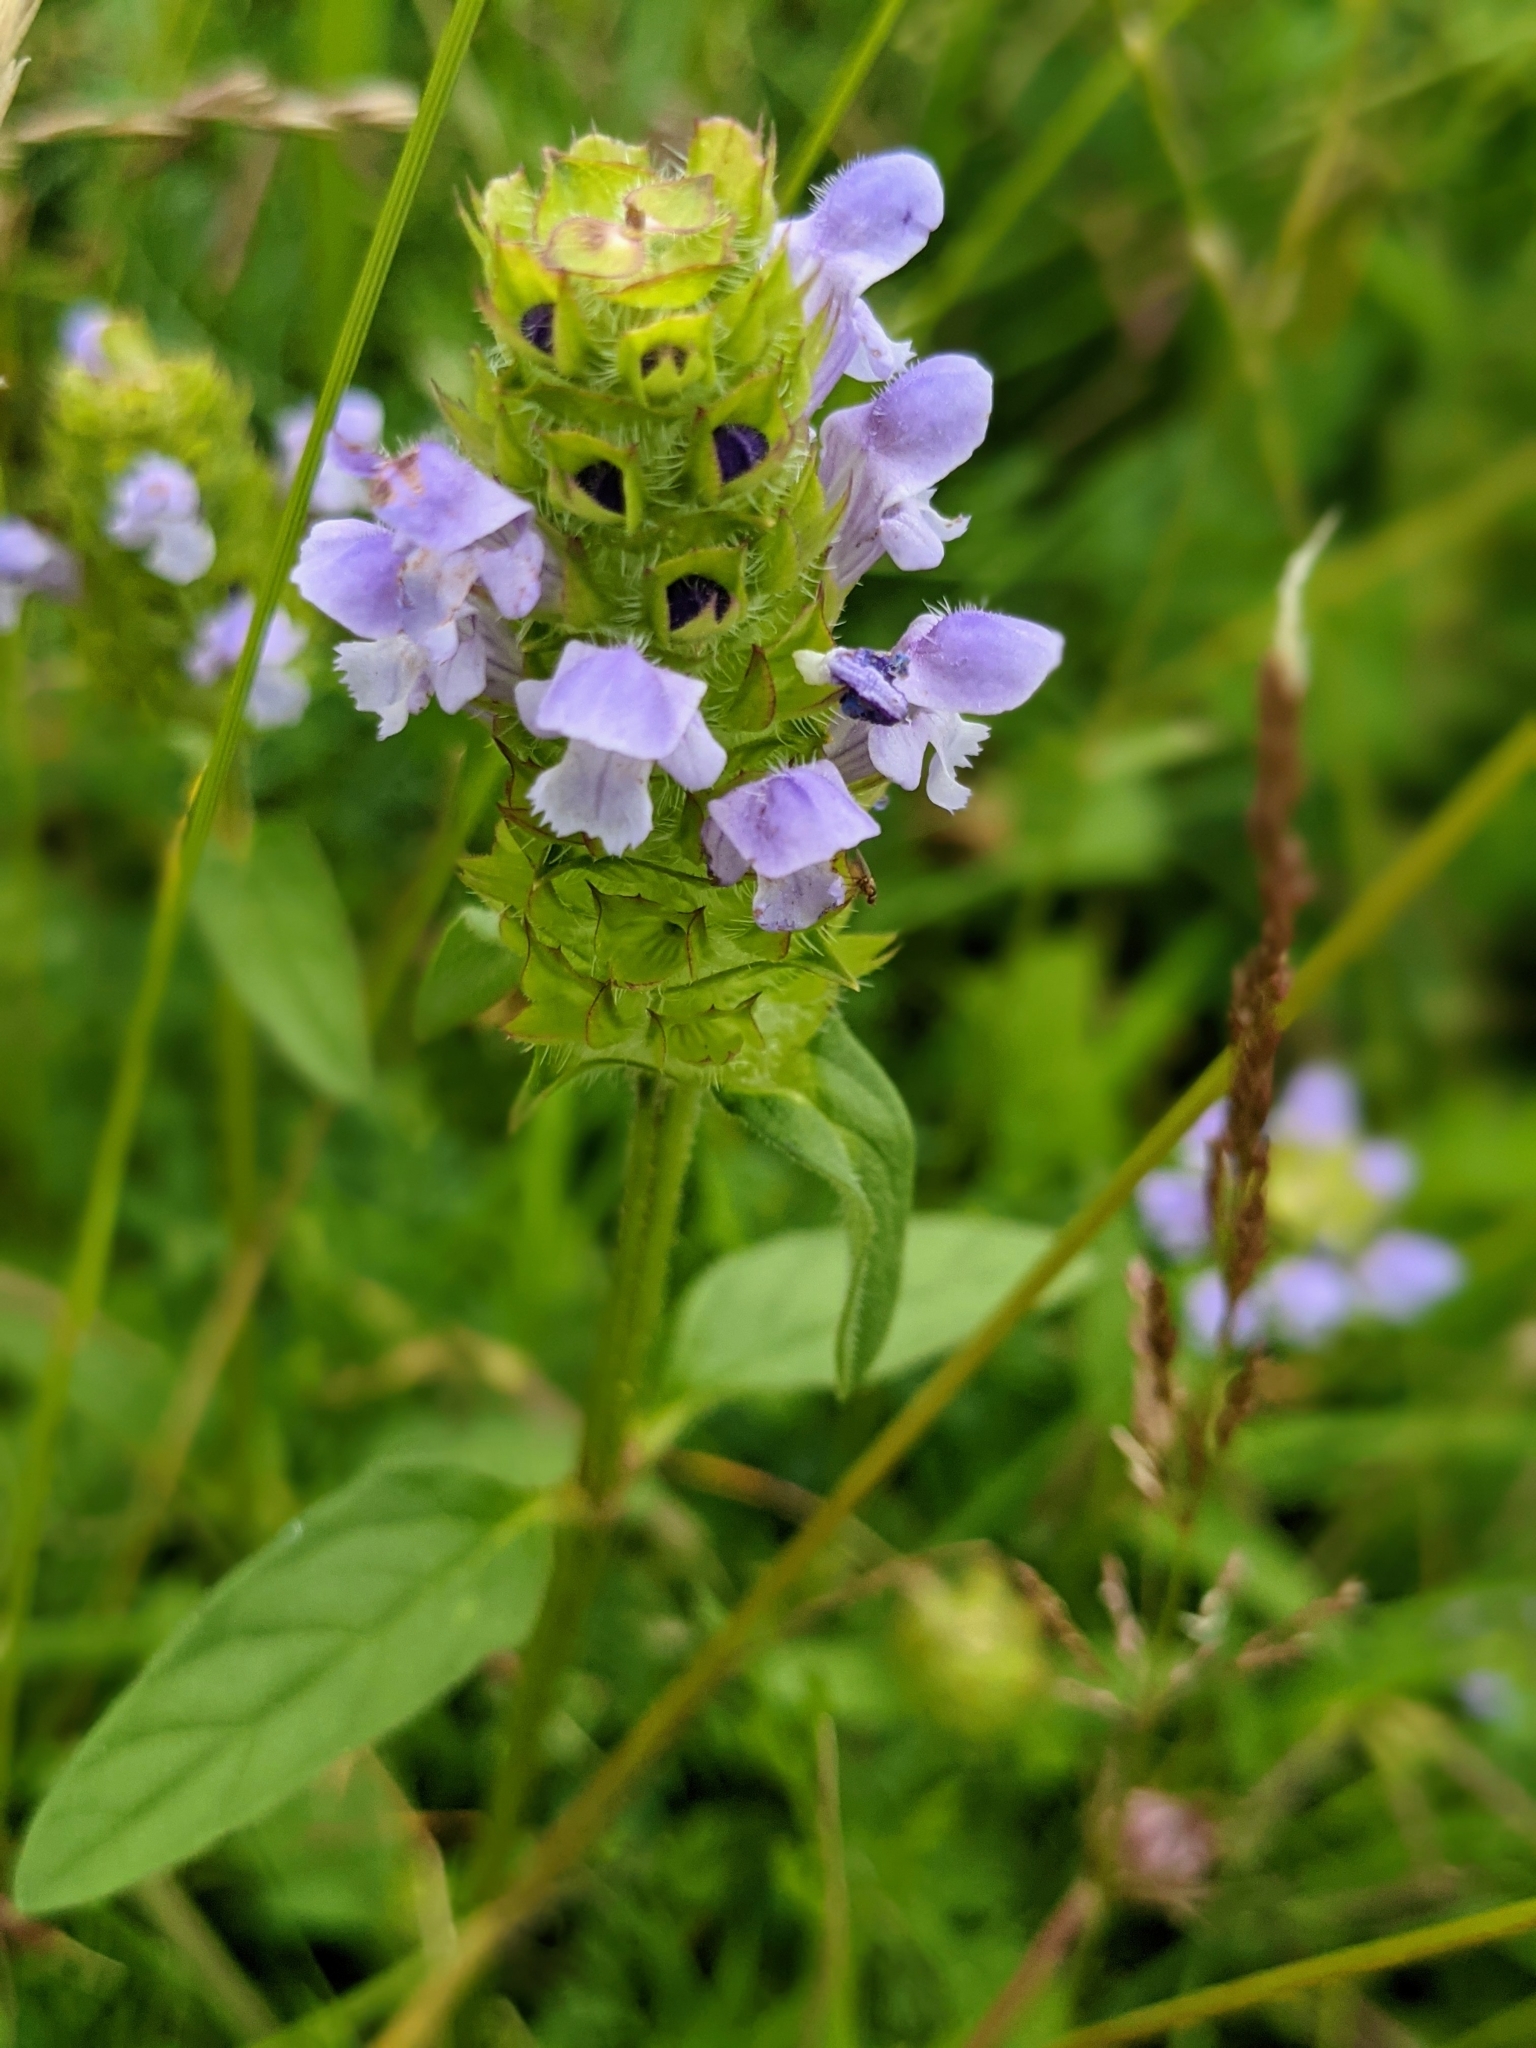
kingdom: Plantae
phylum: Tracheophyta
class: Magnoliopsida
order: Lamiales
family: Lamiaceae
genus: Prunella
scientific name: Prunella vulgaris
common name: Heal-all
